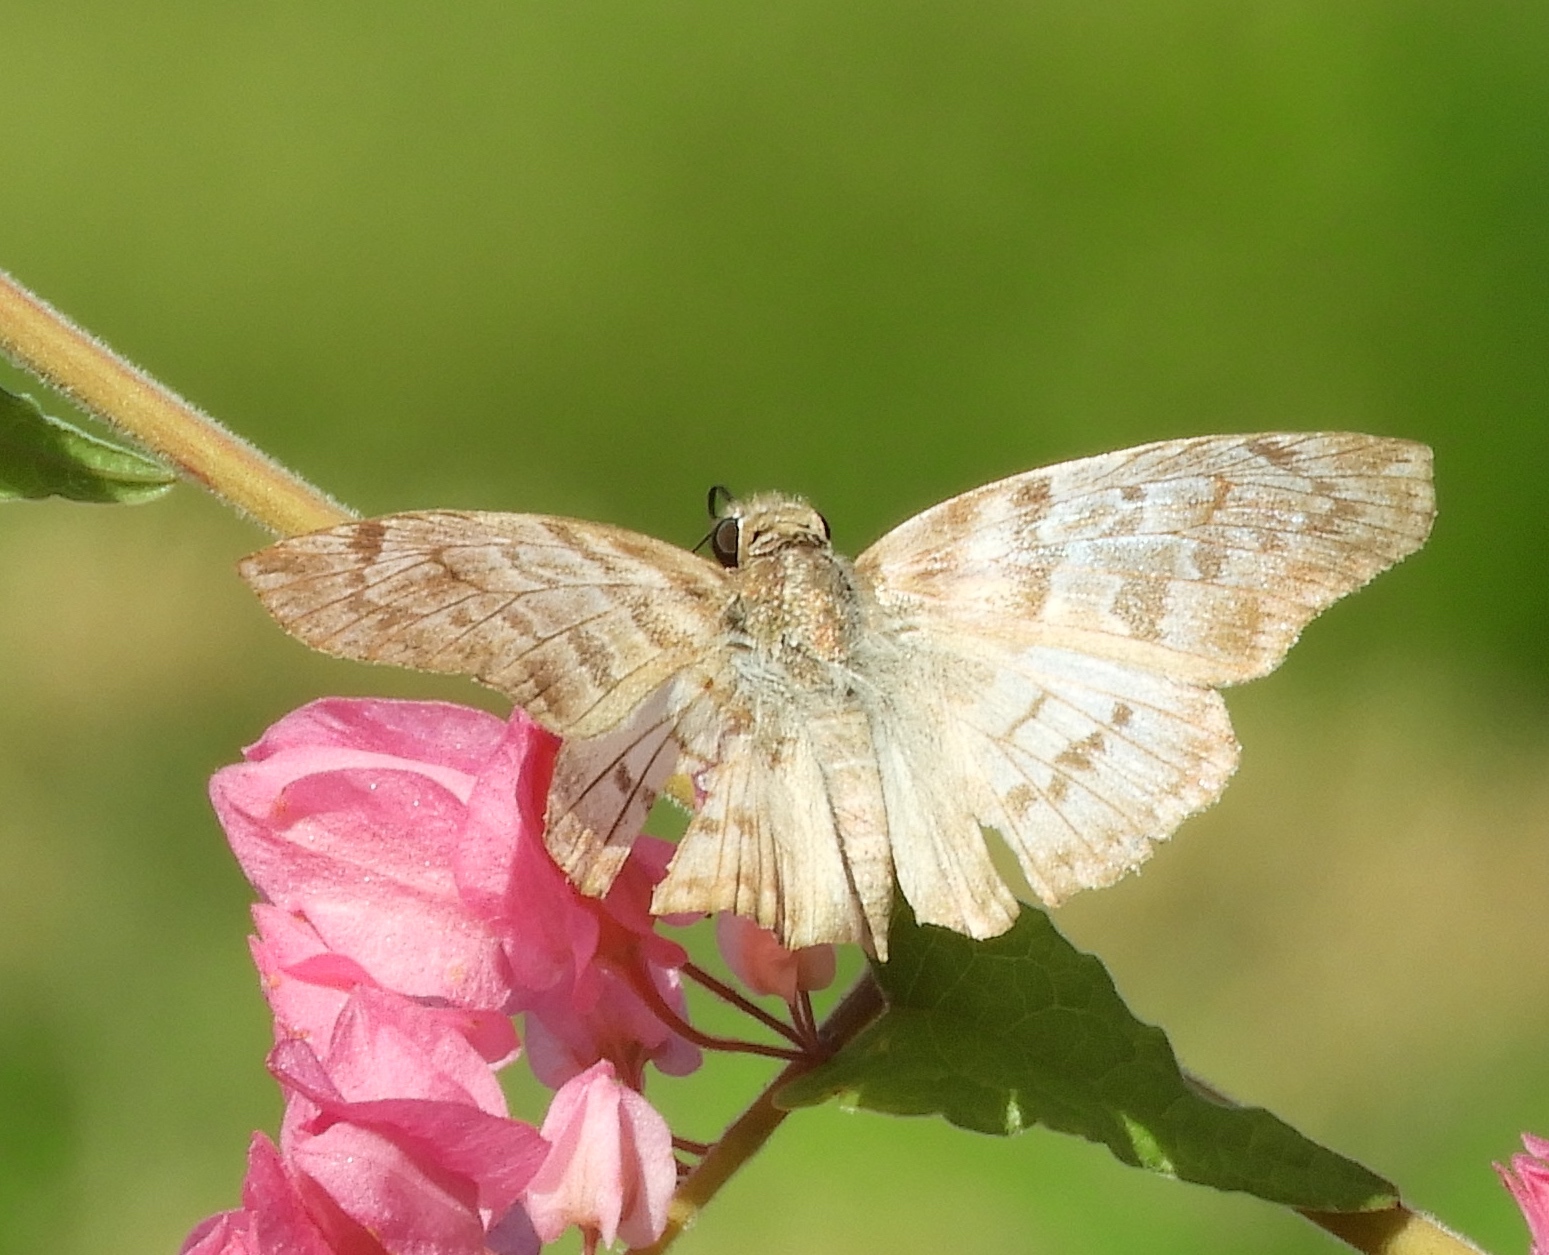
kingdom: Animalia
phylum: Arthropoda
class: Insecta
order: Lepidoptera
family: Hesperiidae
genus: Mylon
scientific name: Mylon pelopidas
